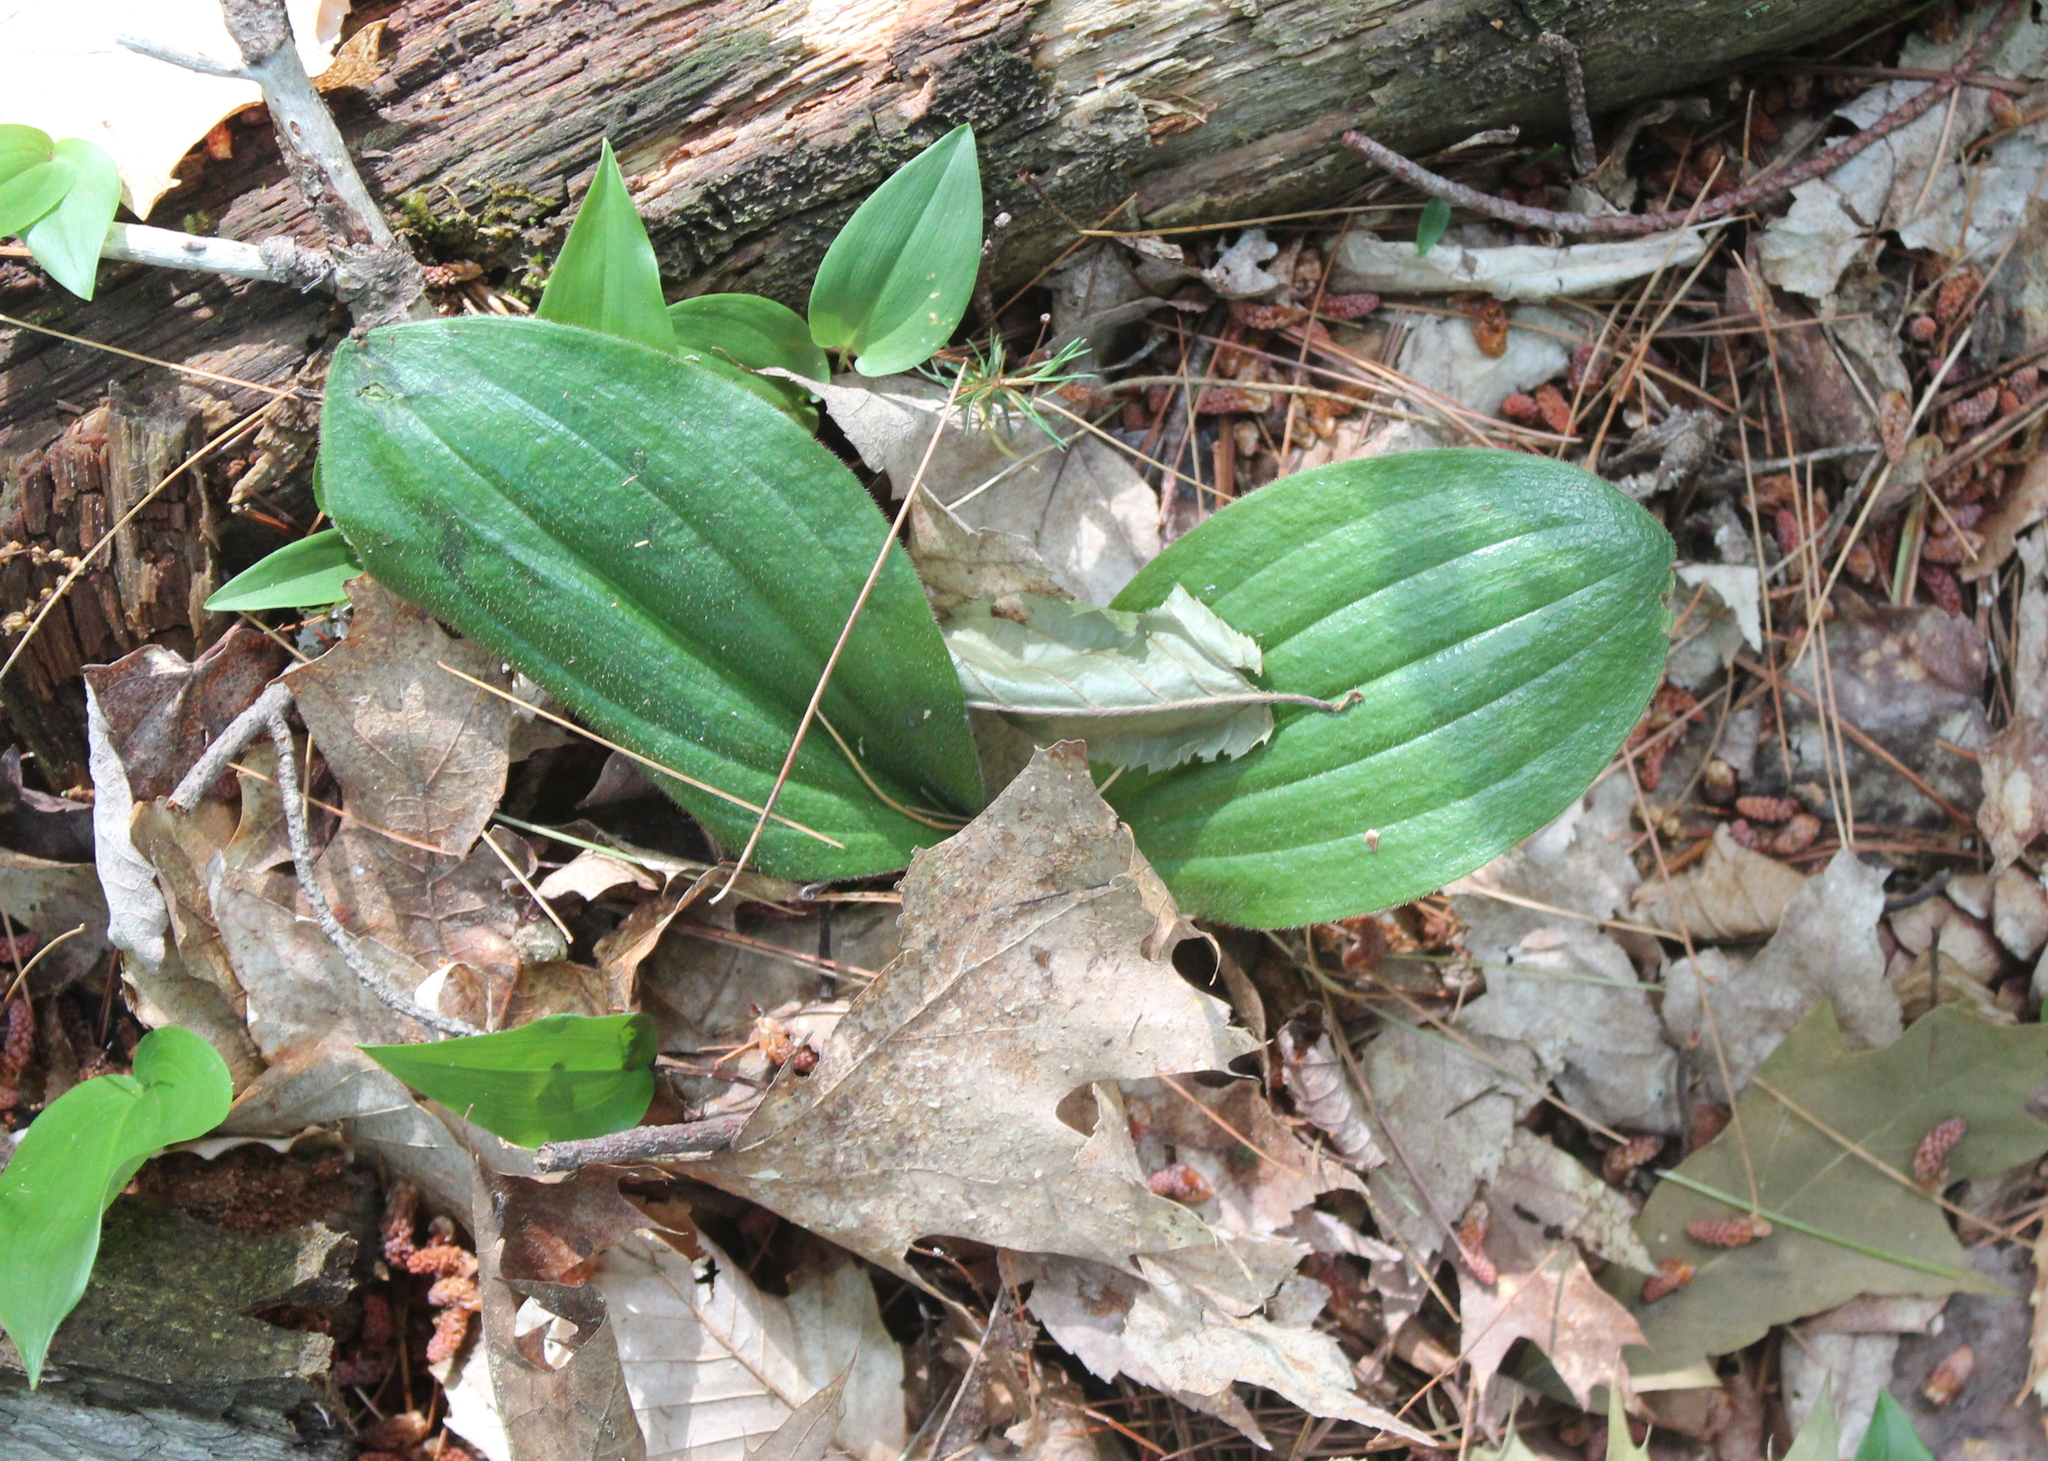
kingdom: Plantae
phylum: Tracheophyta
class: Liliopsida
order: Asparagales
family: Orchidaceae
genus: Cypripedium
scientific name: Cypripedium acaule
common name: Pink lady's-slipper
